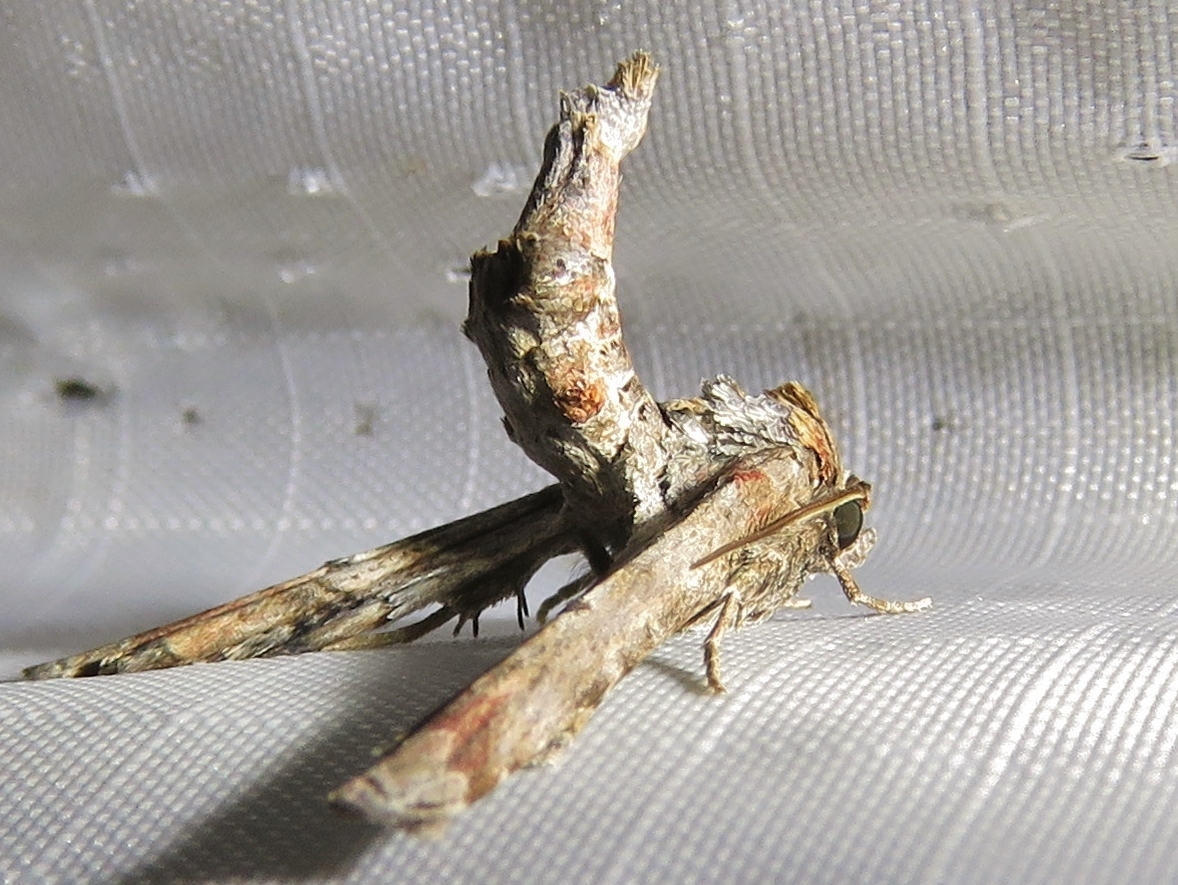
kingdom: Animalia
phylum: Arthropoda
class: Insecta
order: Lepidoptera
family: Euteliidae
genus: Marathyssa
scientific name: Marathyssa inficita
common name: Dark marathyssa moth
